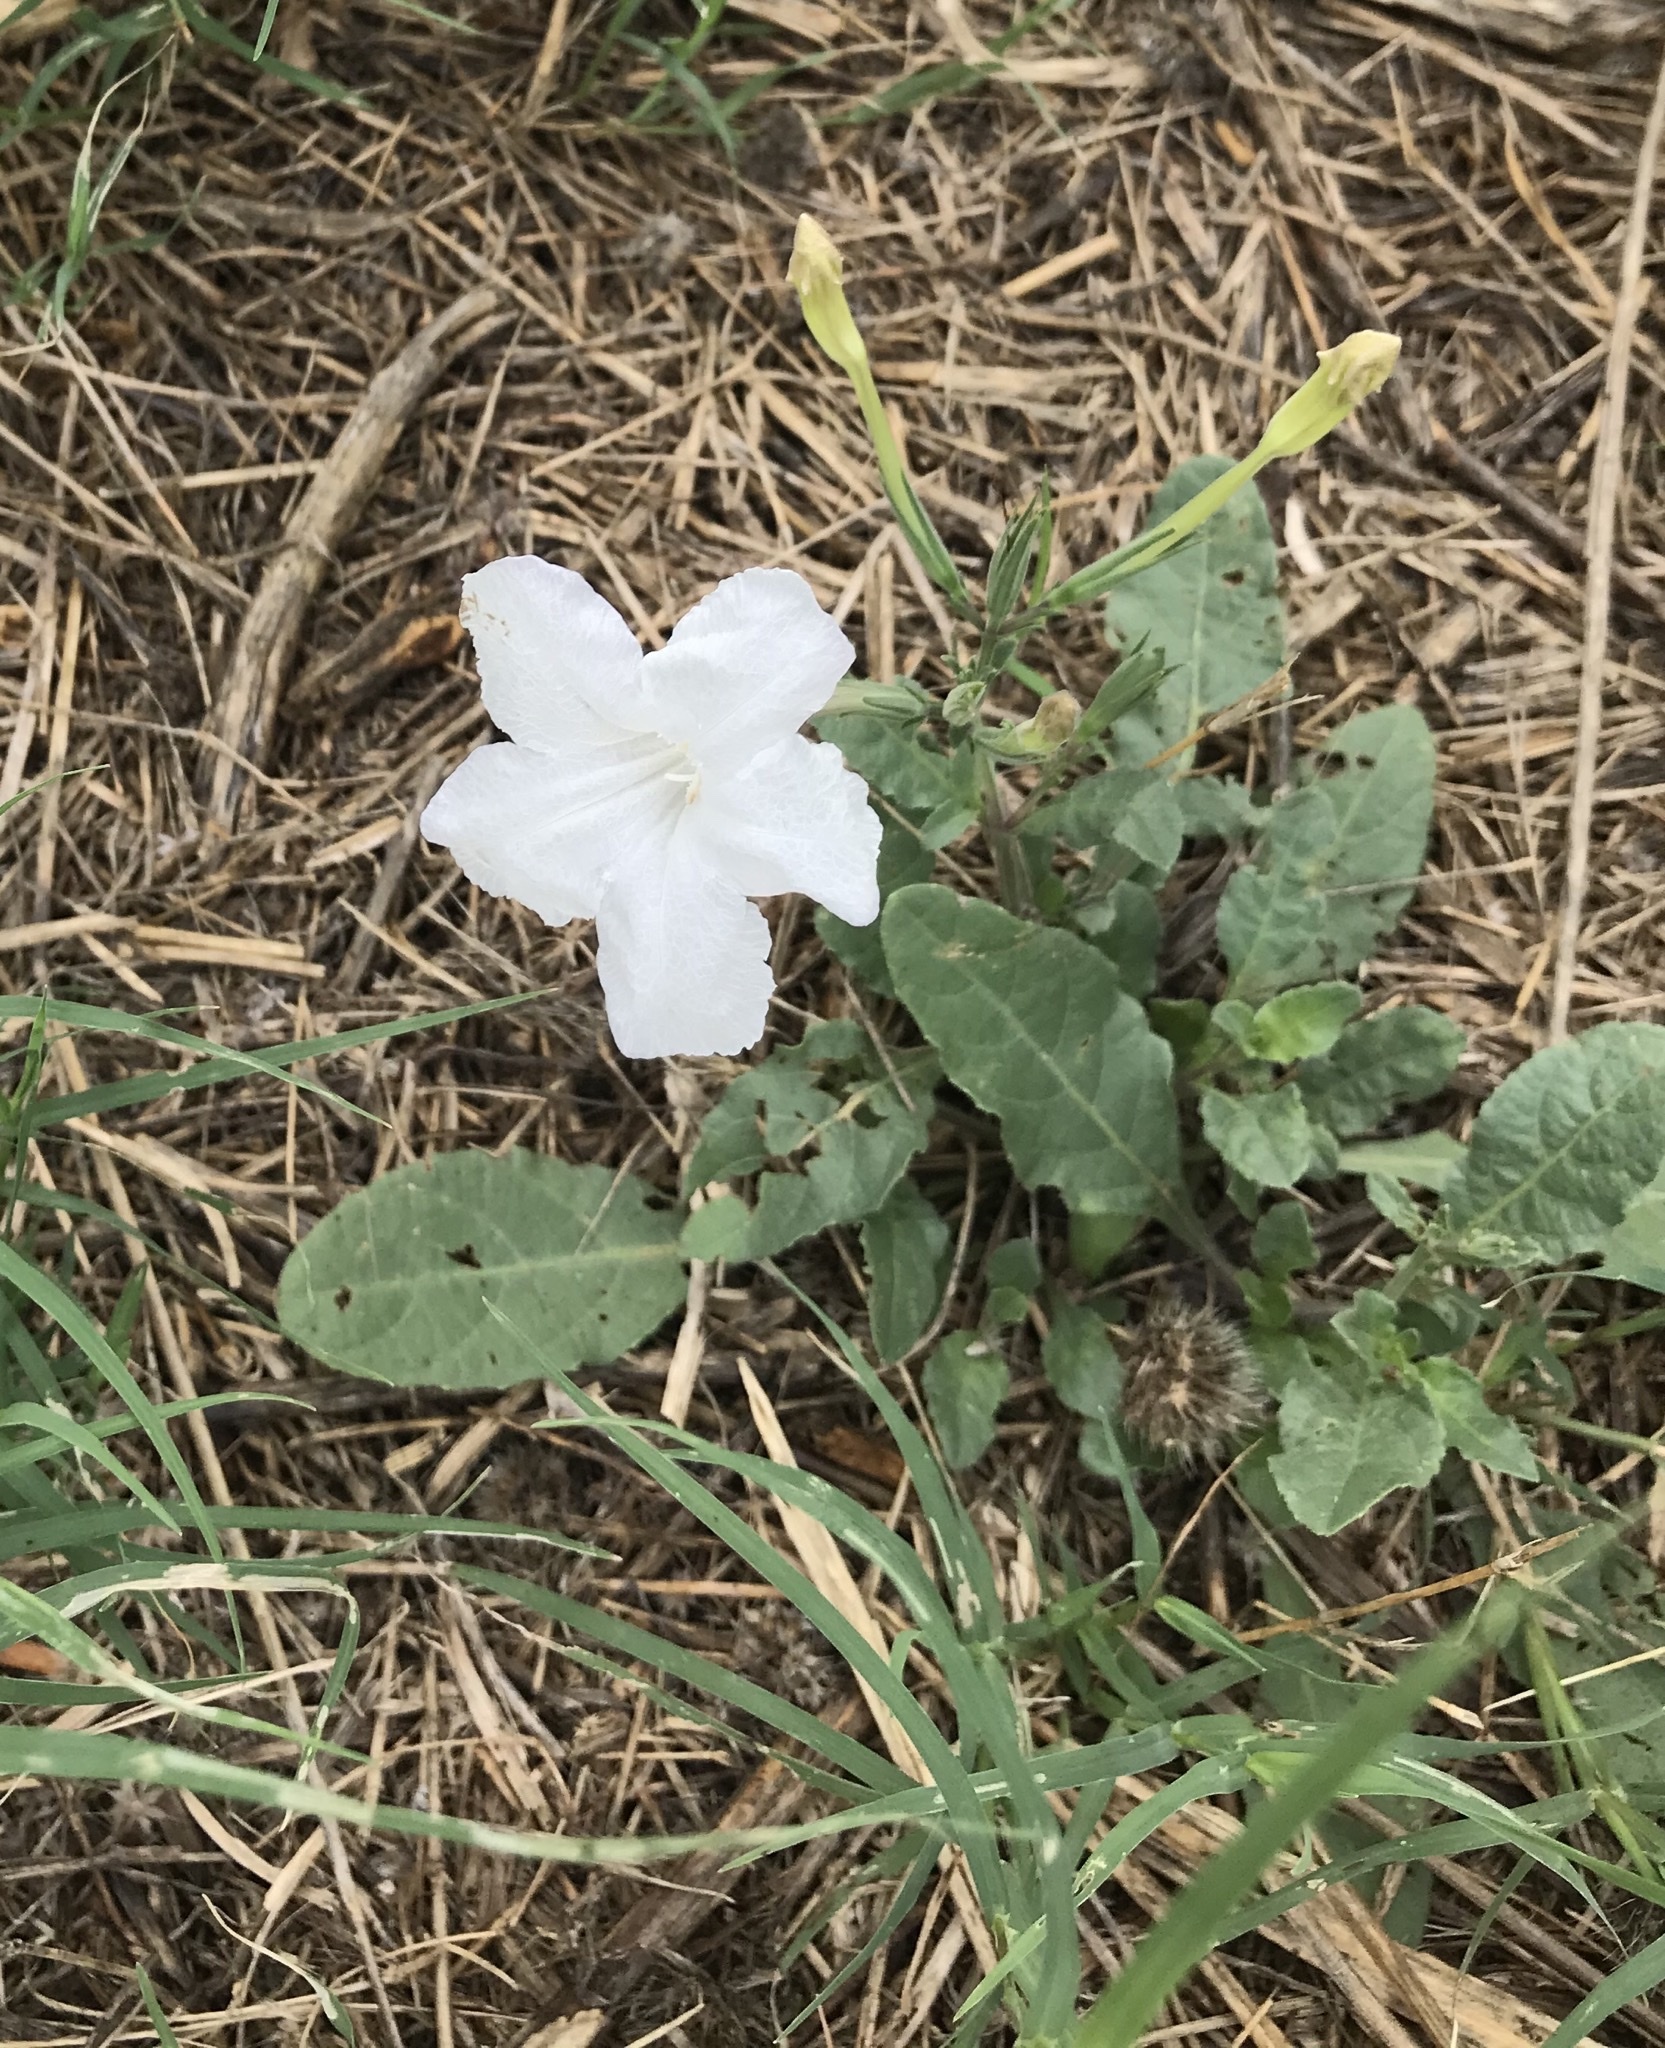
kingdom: Plantae
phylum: Tracheophyta
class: Magnoliopsida
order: Lamiales
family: Acanthaceae
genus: Ruellia
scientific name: Ruellia metziae
